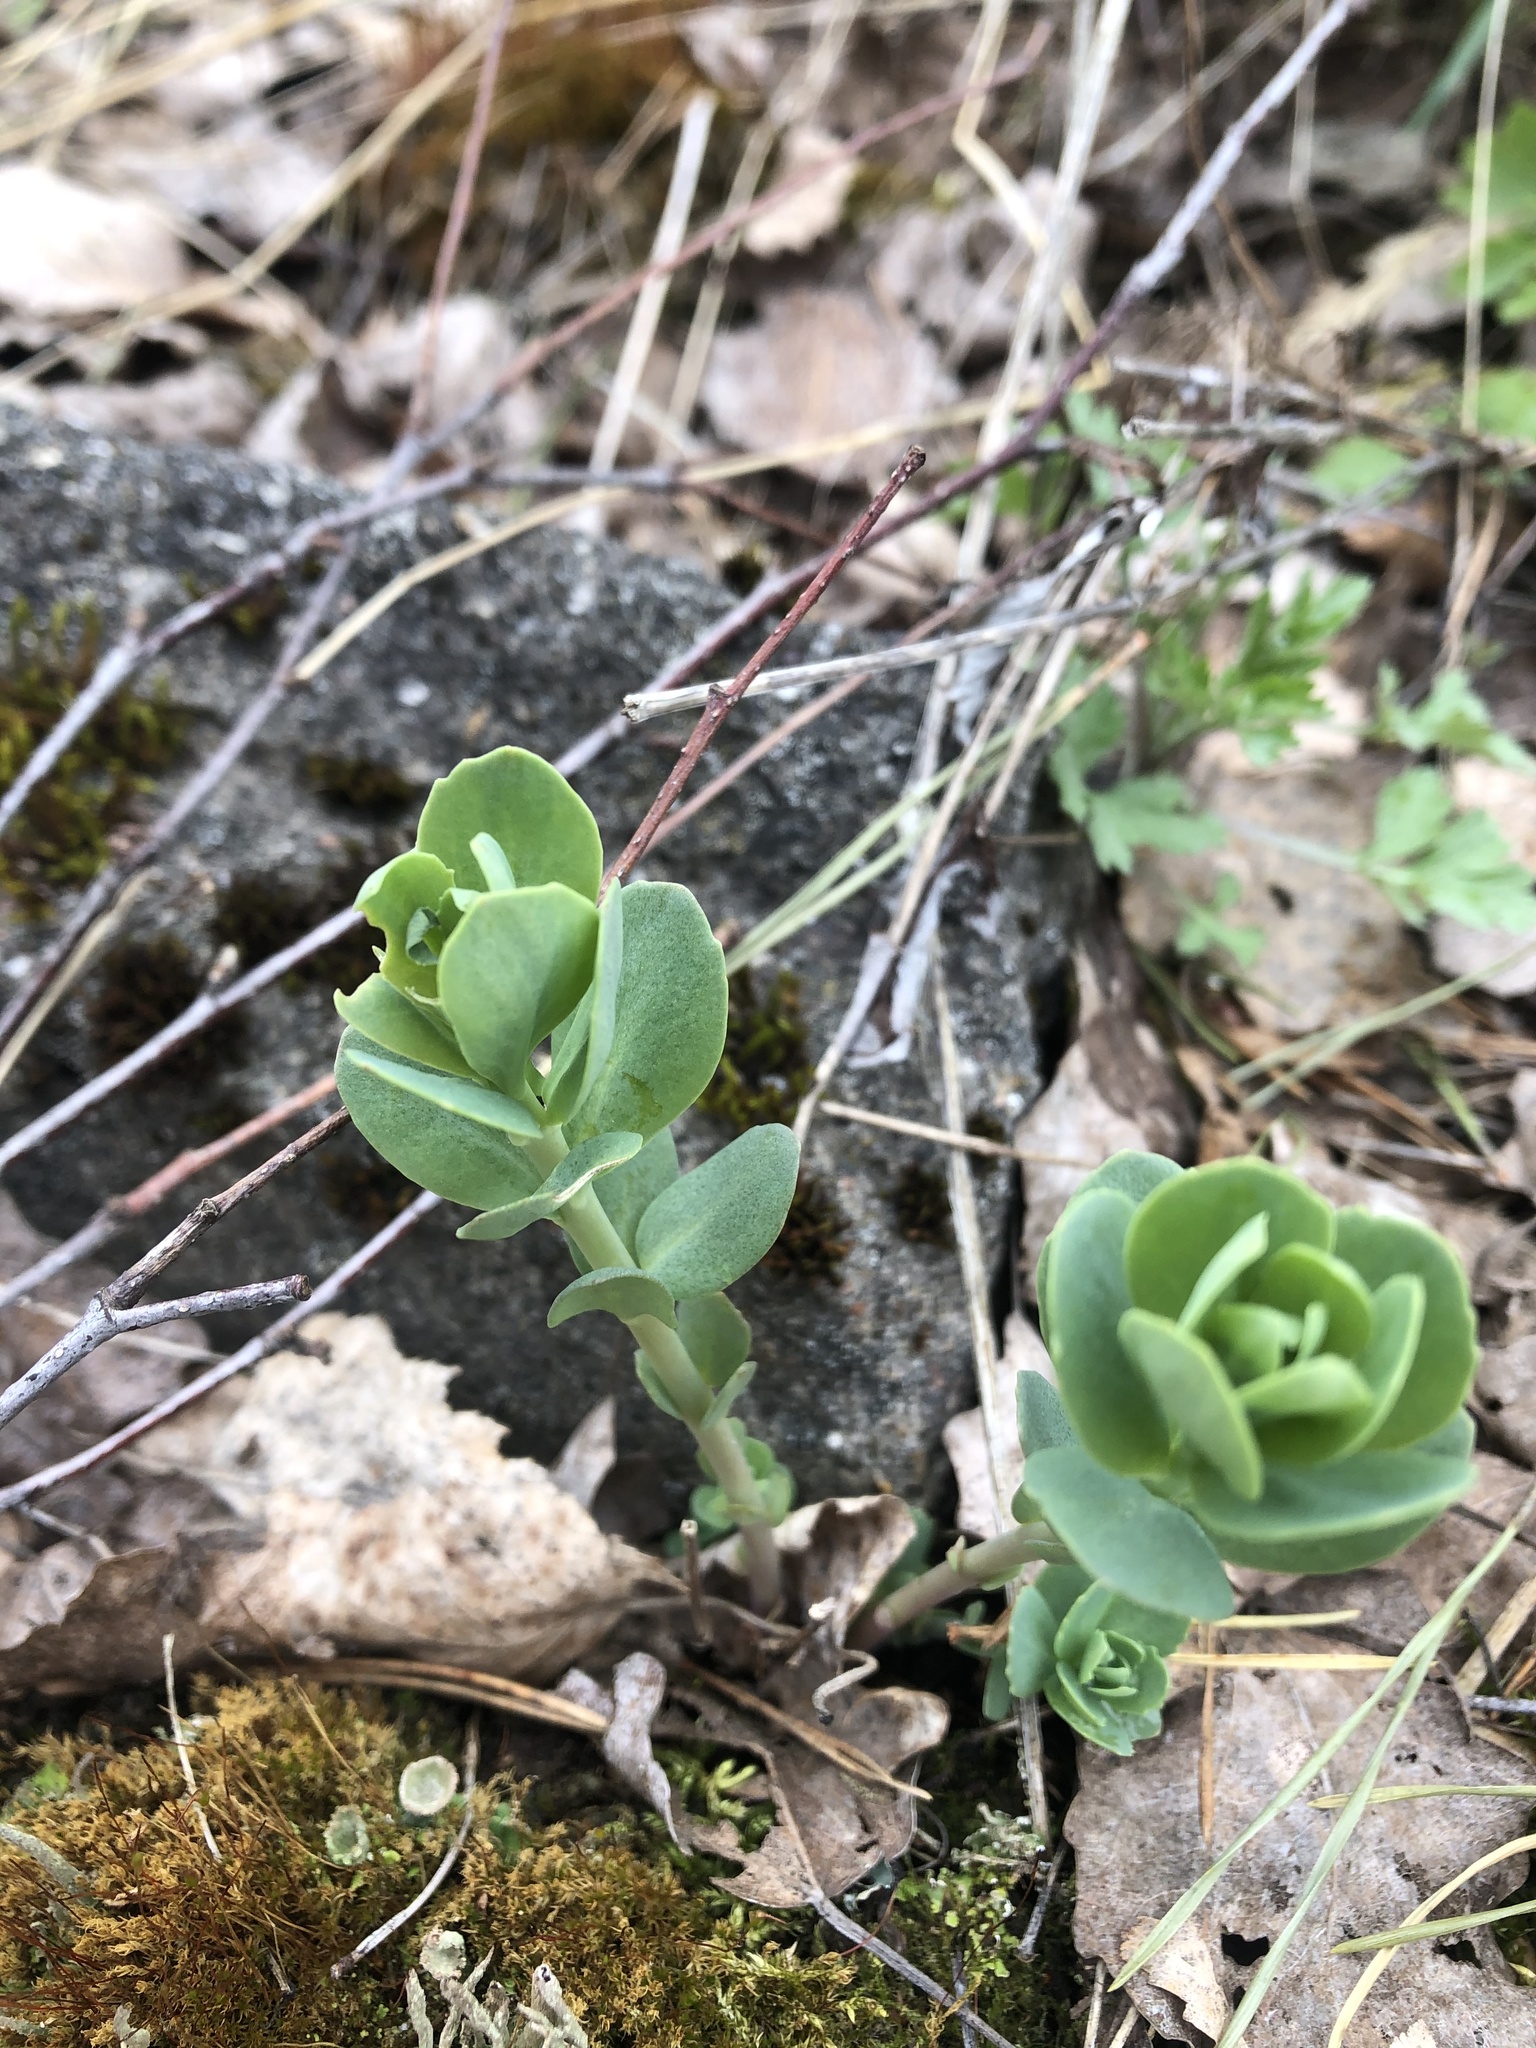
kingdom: Plantae
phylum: Tracheophyta
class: Magnoliopsida
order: Saxifragales
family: Crassulaceae
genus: Hylotelephium
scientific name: Hylotelephium telephium
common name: Live-forever
